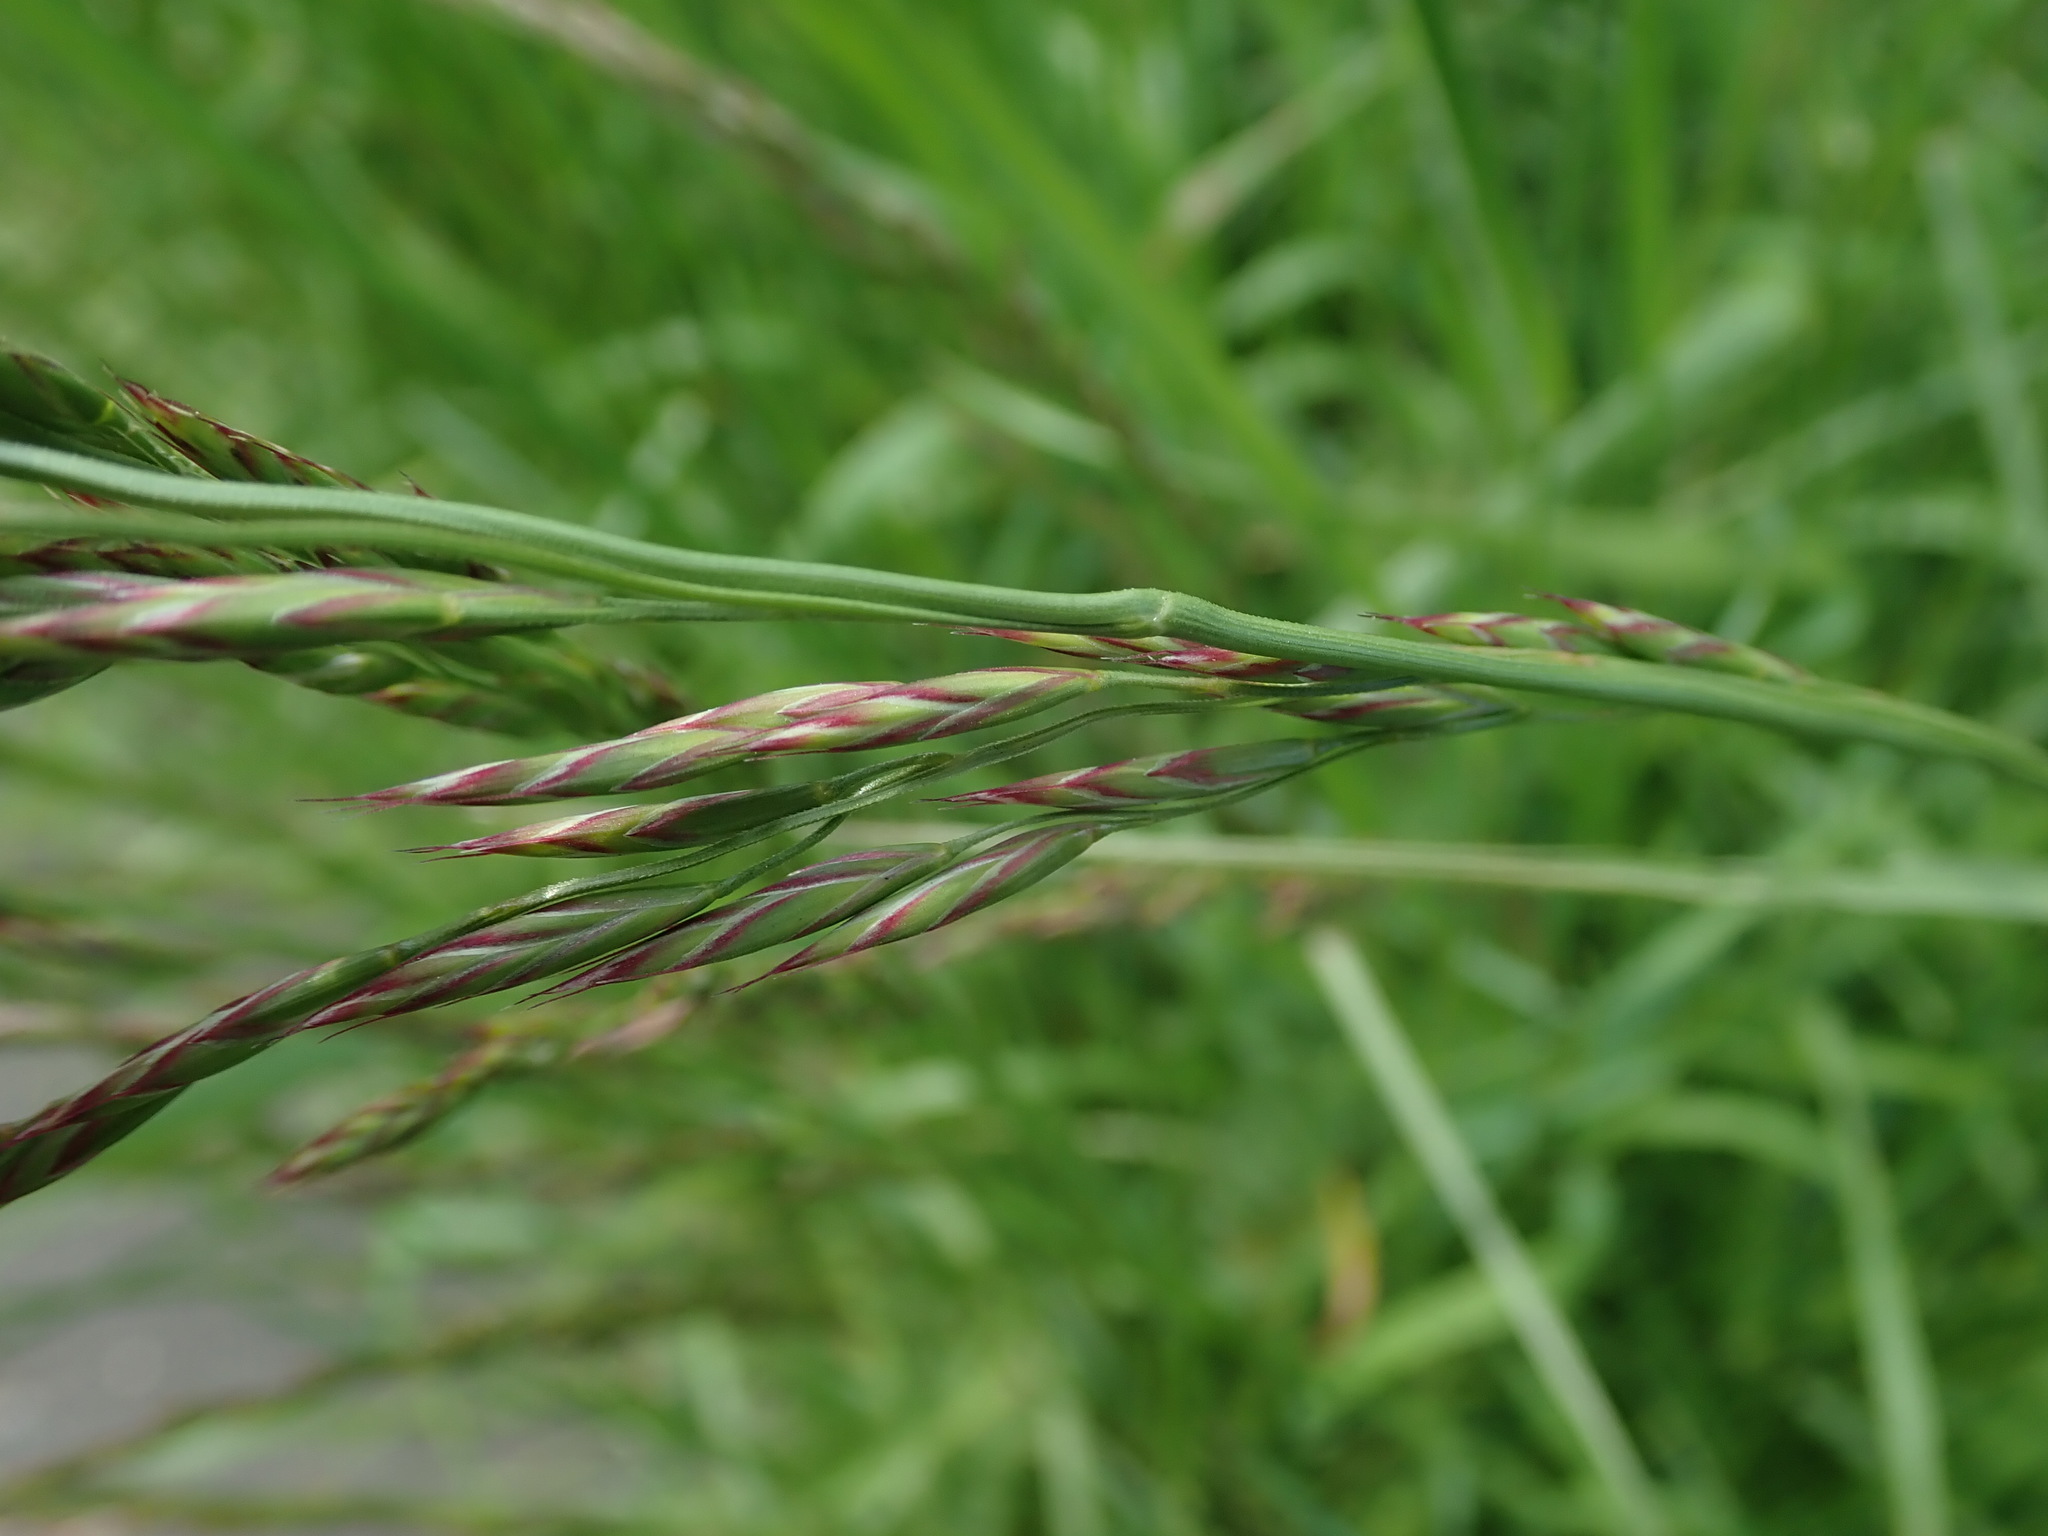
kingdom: Plantae
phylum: Tracheophyta
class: Liliopsida
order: Poales
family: Poaceae
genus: Lolium
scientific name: Lolium arundinaceum
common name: Reed fescue
